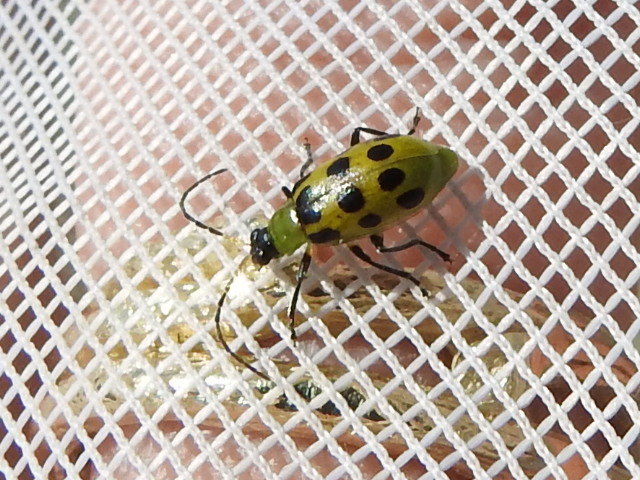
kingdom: Animalia
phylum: Arthropoda
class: Insecta
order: Coleoptera
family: Chrysomelidae
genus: Diabrotica
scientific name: Diabrotica undecimpunctata
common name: Spotted cucumber beetle
